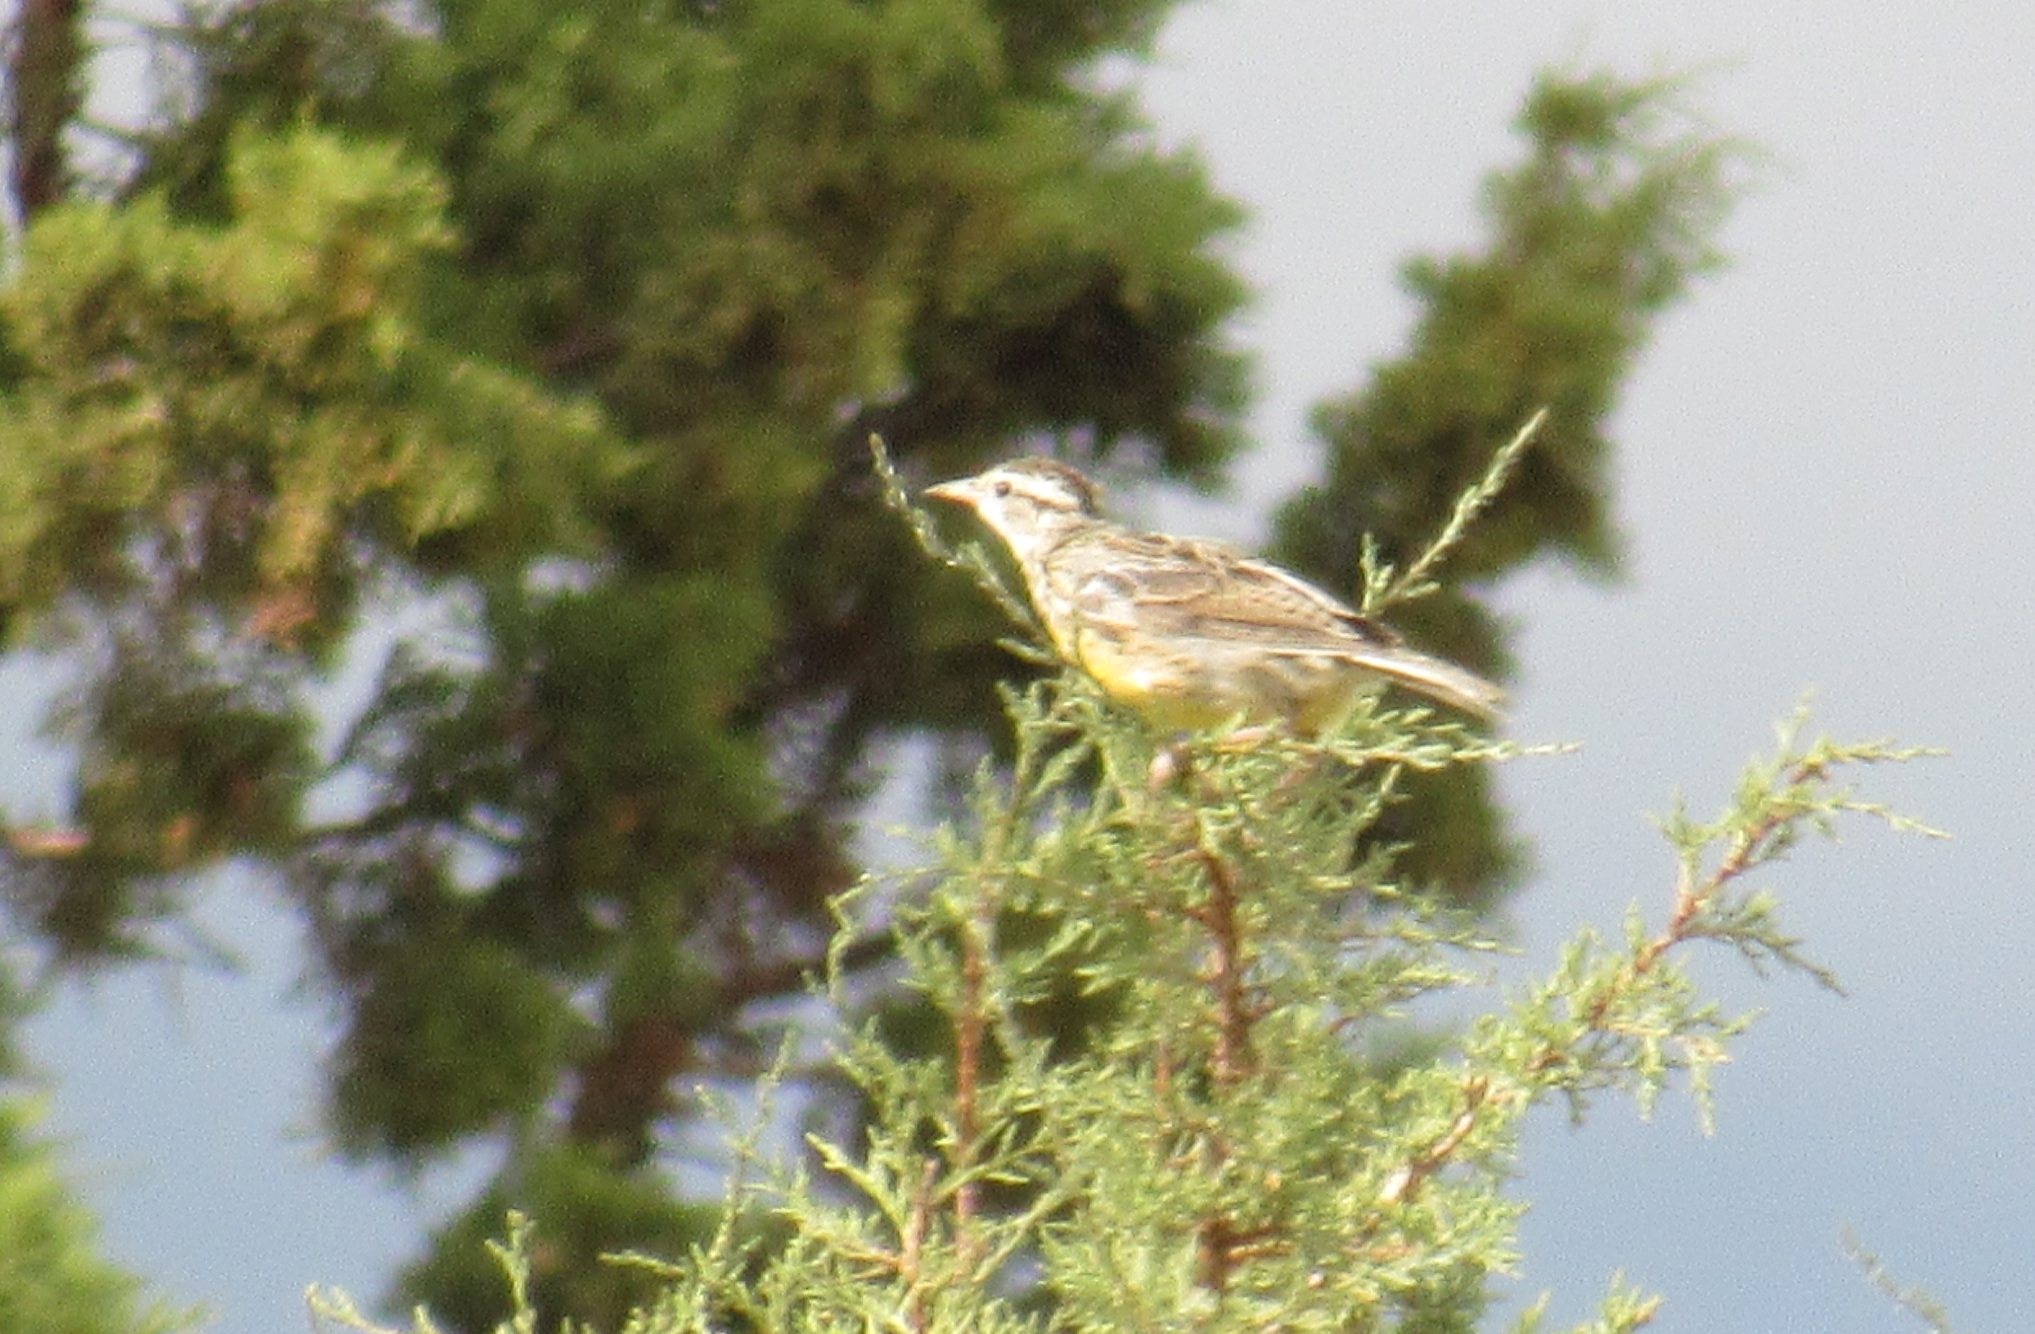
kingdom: Animalia
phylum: Chordata
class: Aves
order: Passeriformes
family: Icteridae
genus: Sturnella
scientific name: Sturnella neglecta
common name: Western meadowlark
